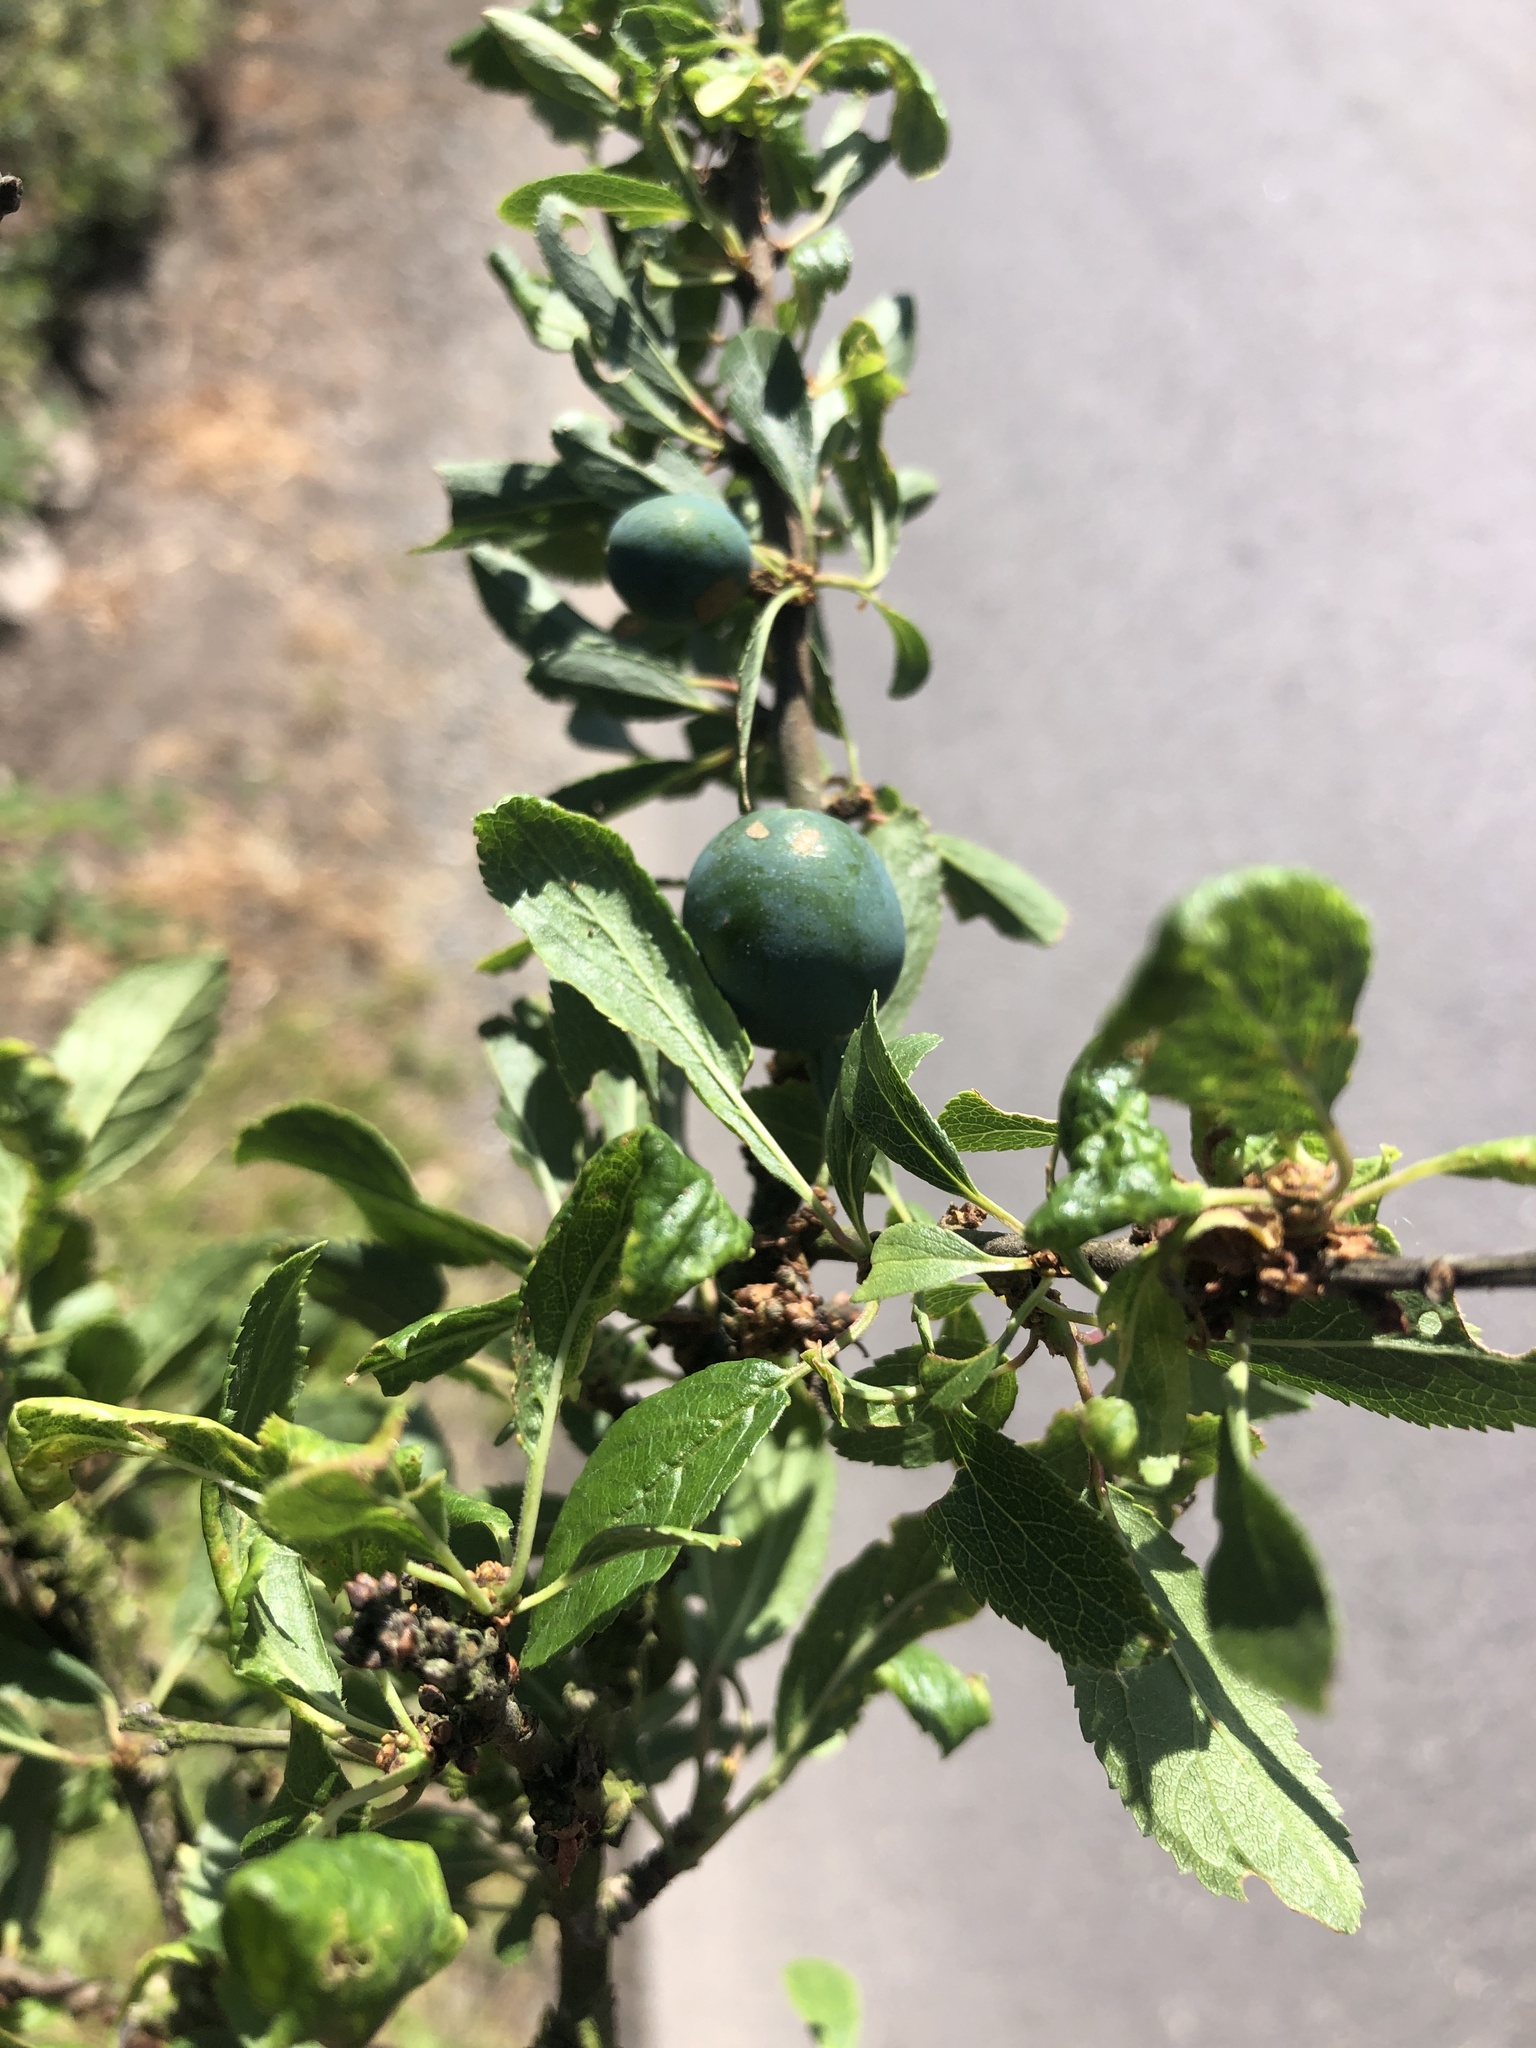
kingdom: Plantae
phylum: Tracheophyta
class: Magnoliopsida
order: Rosales
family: Rosaceae
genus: Prunus
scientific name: Prunus spinosa
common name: Blackthorn
